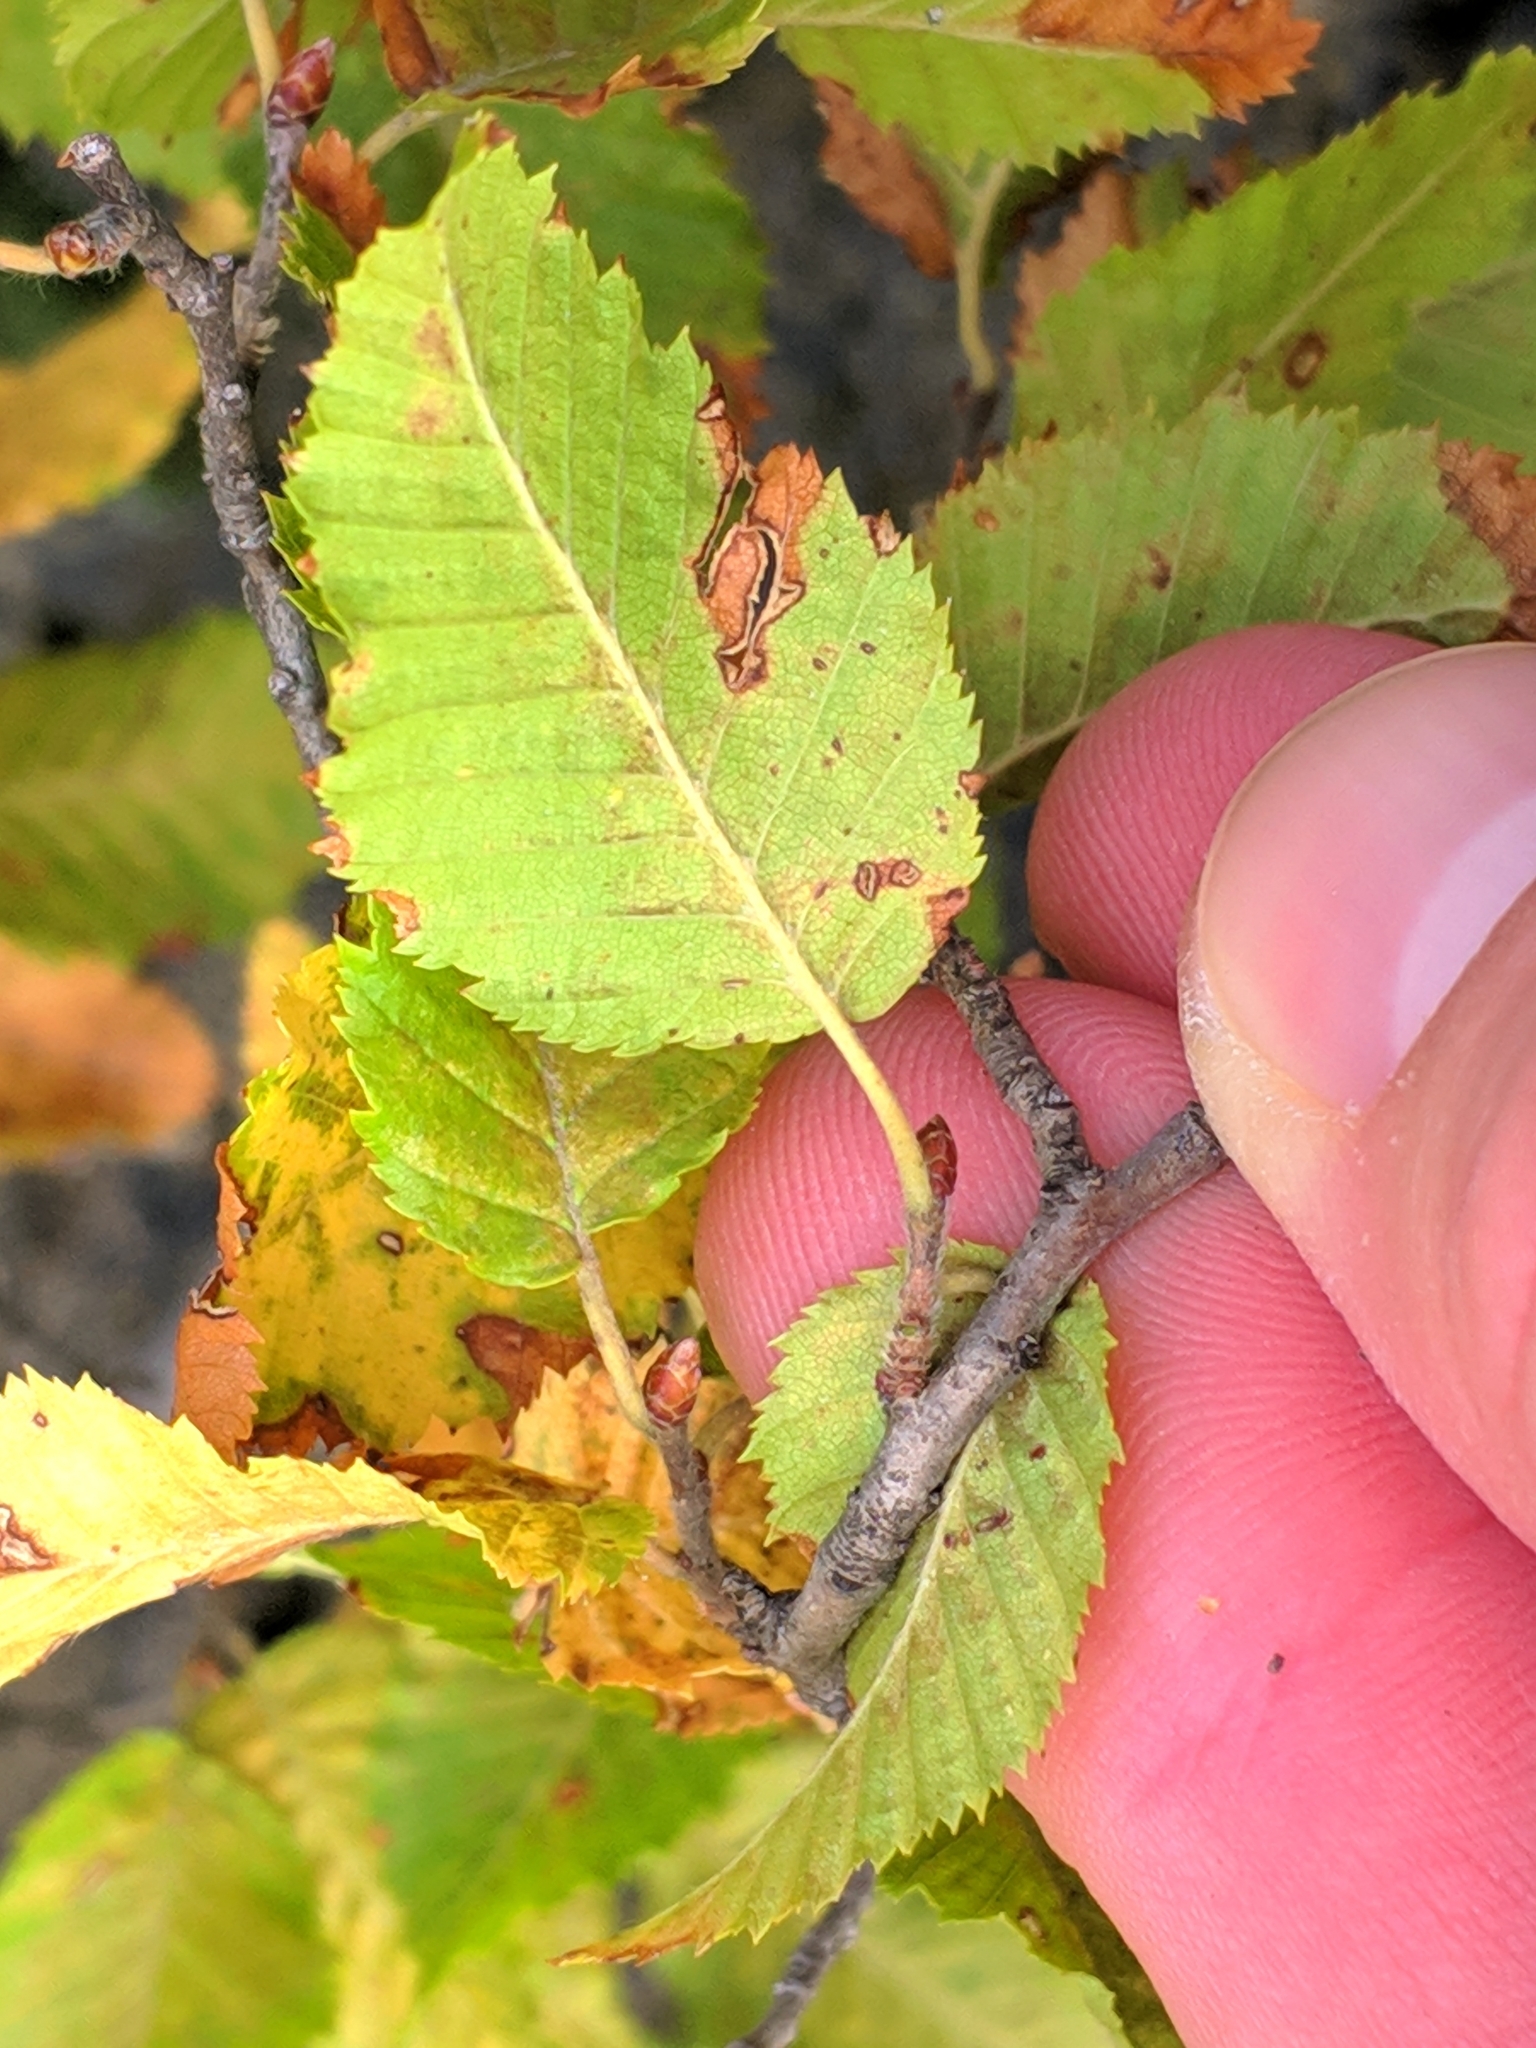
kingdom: Plantae
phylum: Tracheophyta
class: Magnoliopsida
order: Fagales
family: Betulaceae
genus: Carpinus
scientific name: Carpinus orientalis
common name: Eastern hornbeam
